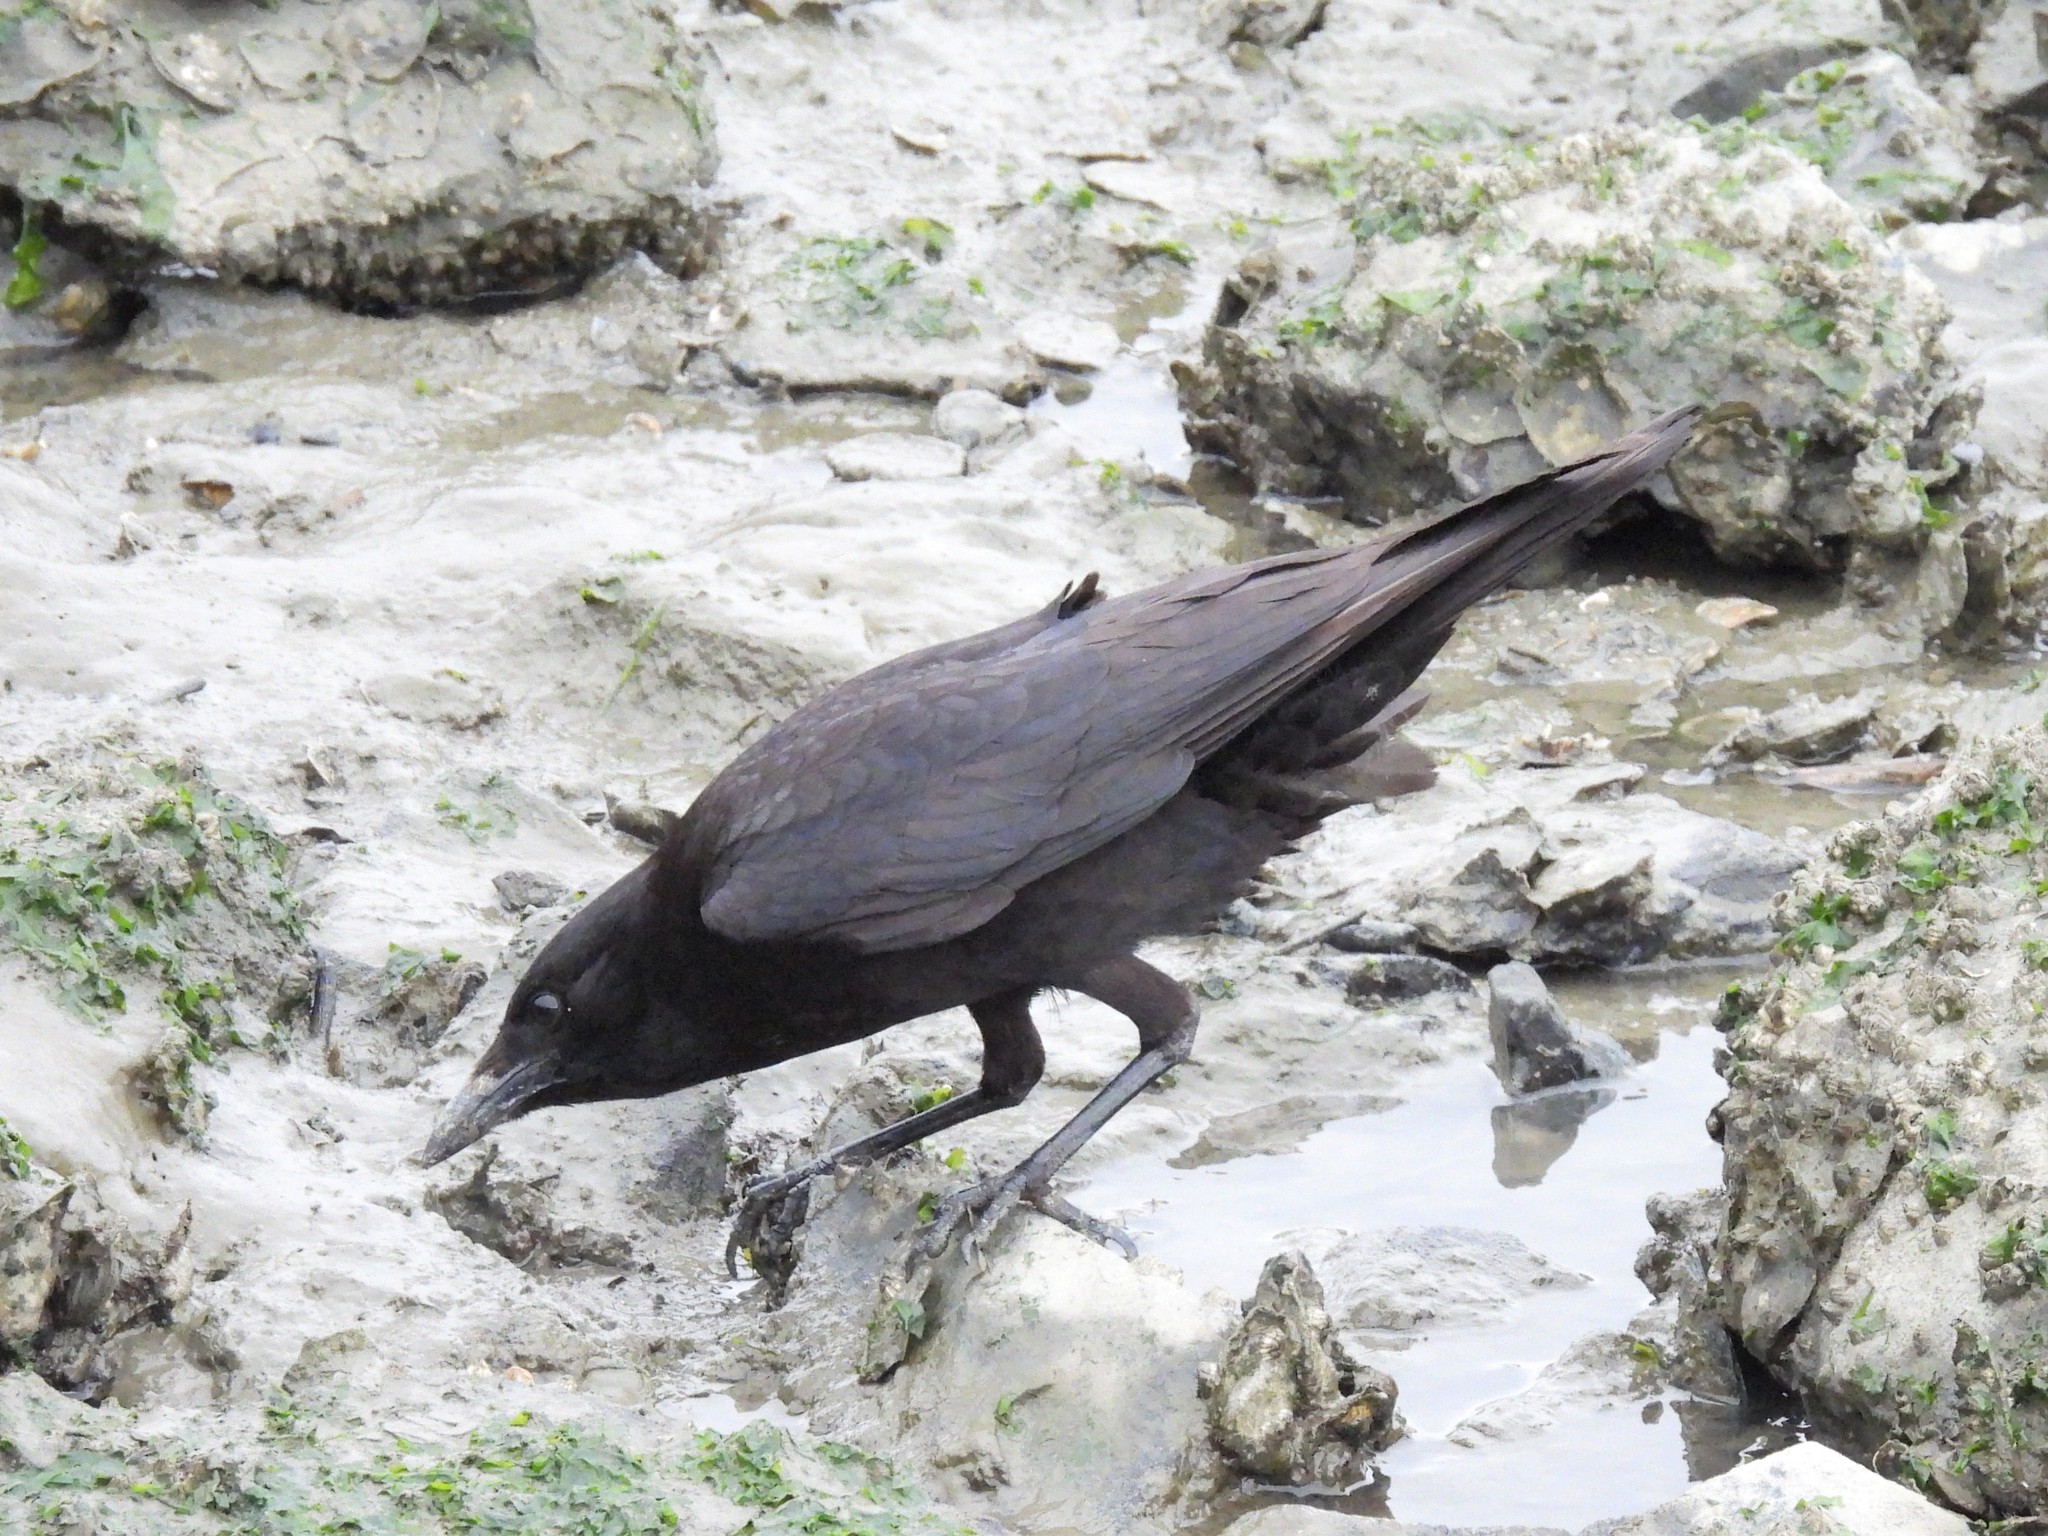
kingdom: Animalia
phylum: Chordata
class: Aves
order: Passeriformes
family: Corvidae
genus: Corvus
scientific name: Corvus brachyrhynchos
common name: American crow
